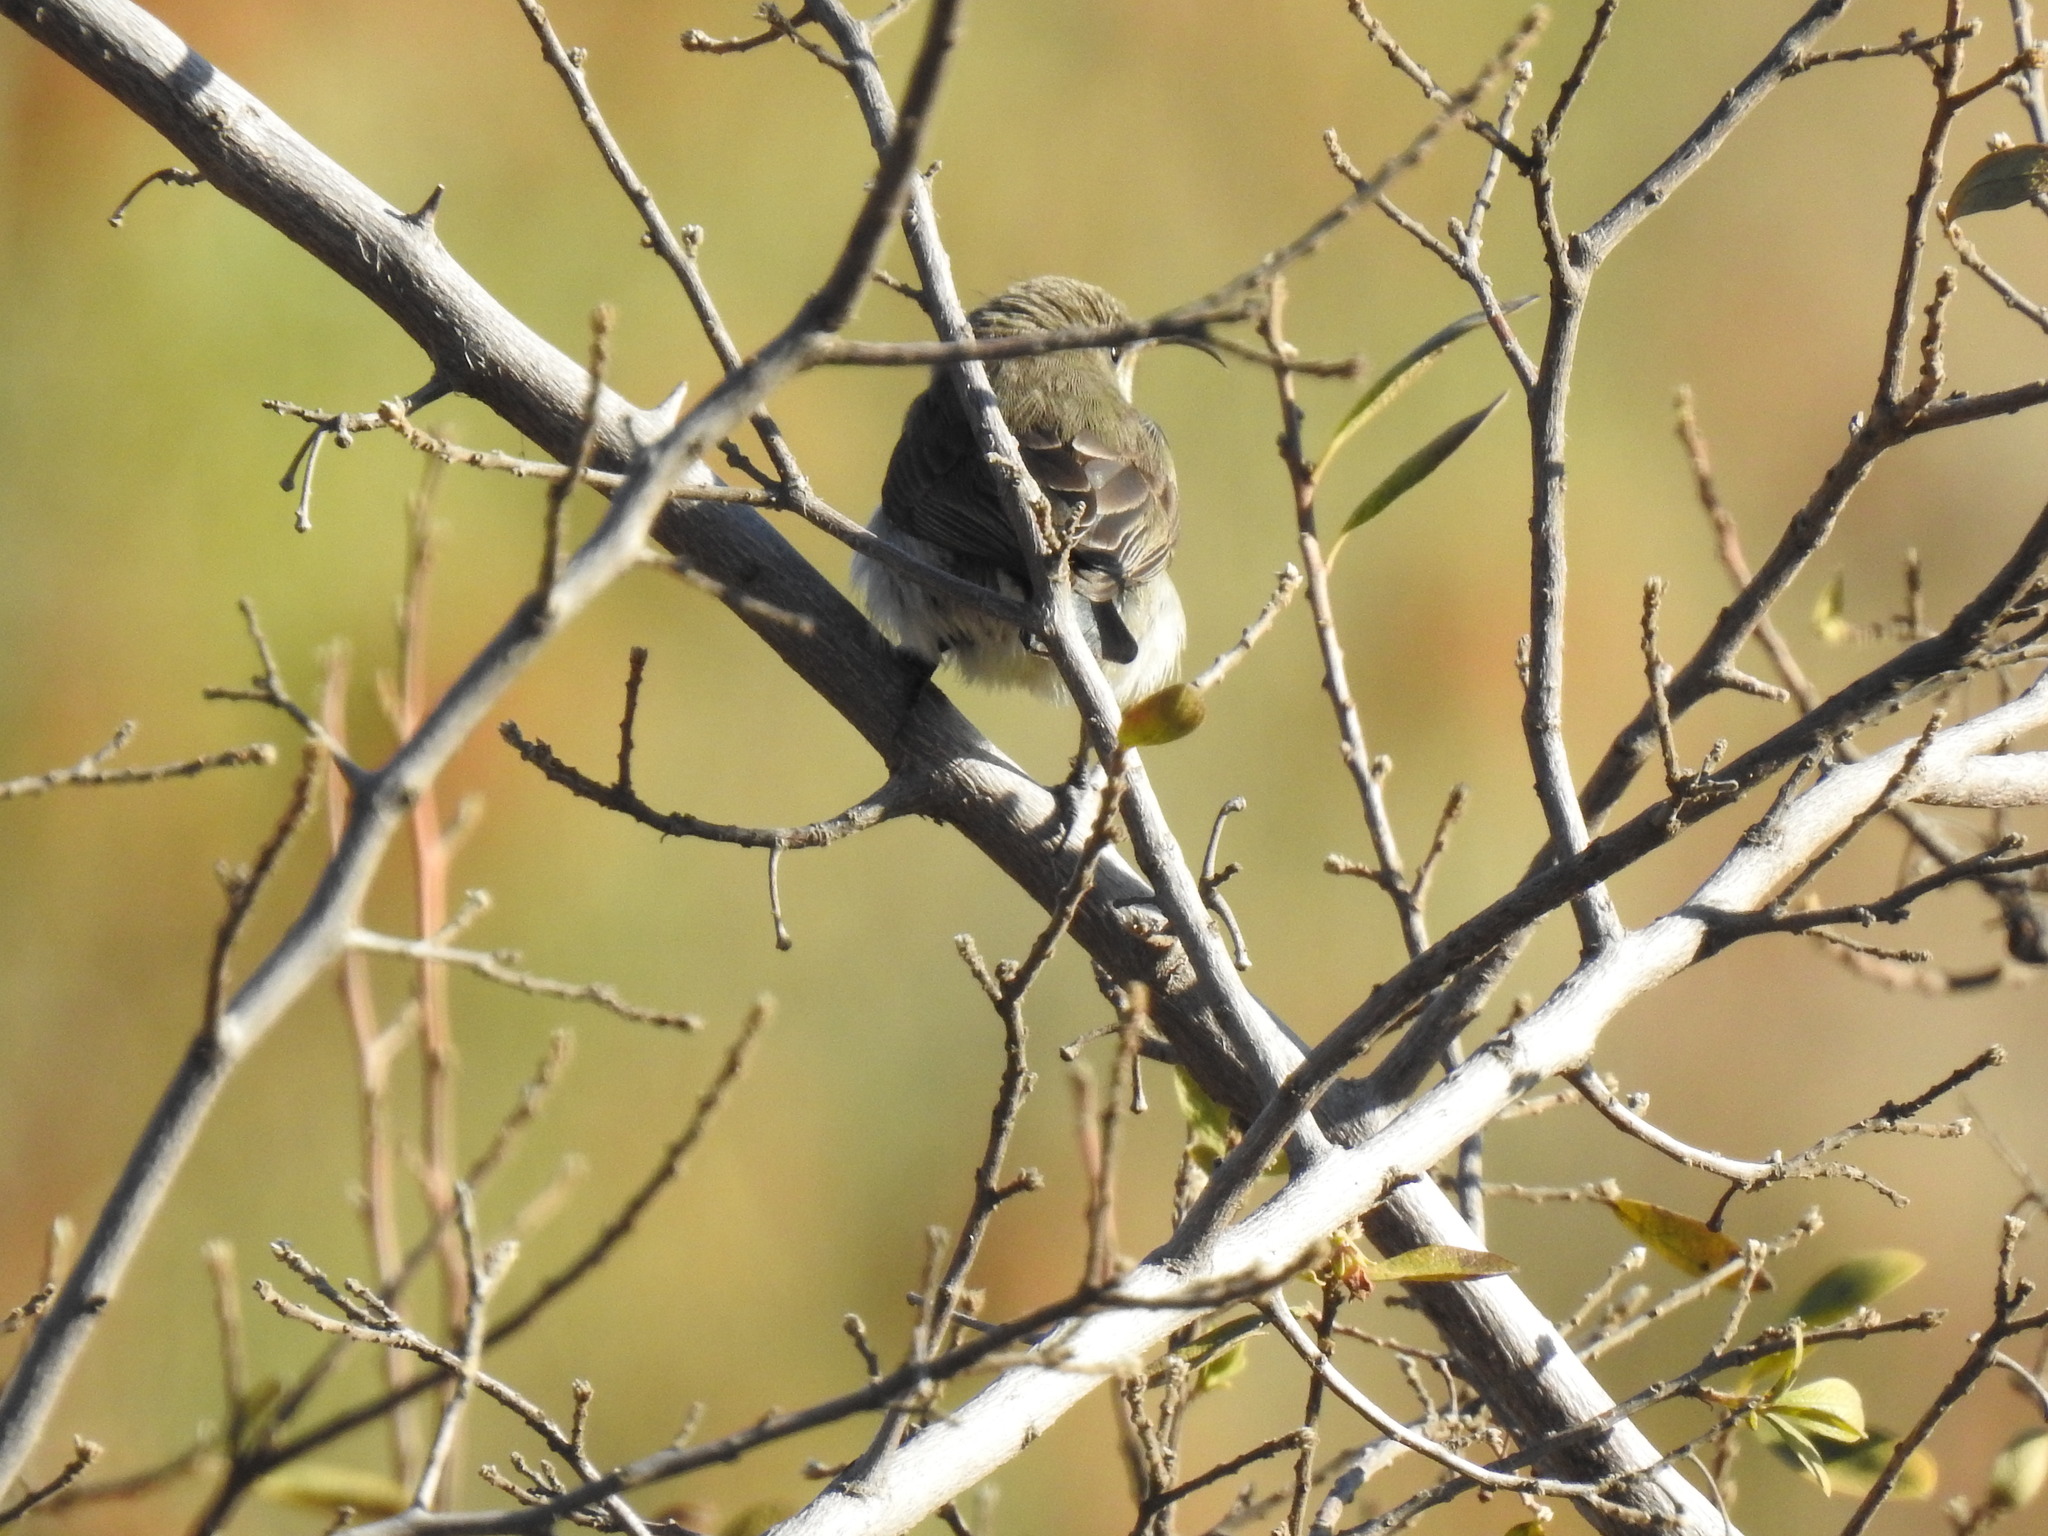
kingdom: Animalia
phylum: Chordata
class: Aves
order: Passeriformes
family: Nectariniidae
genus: Cinnyris
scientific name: Cinnyris talatala
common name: White-bellied sunbird
